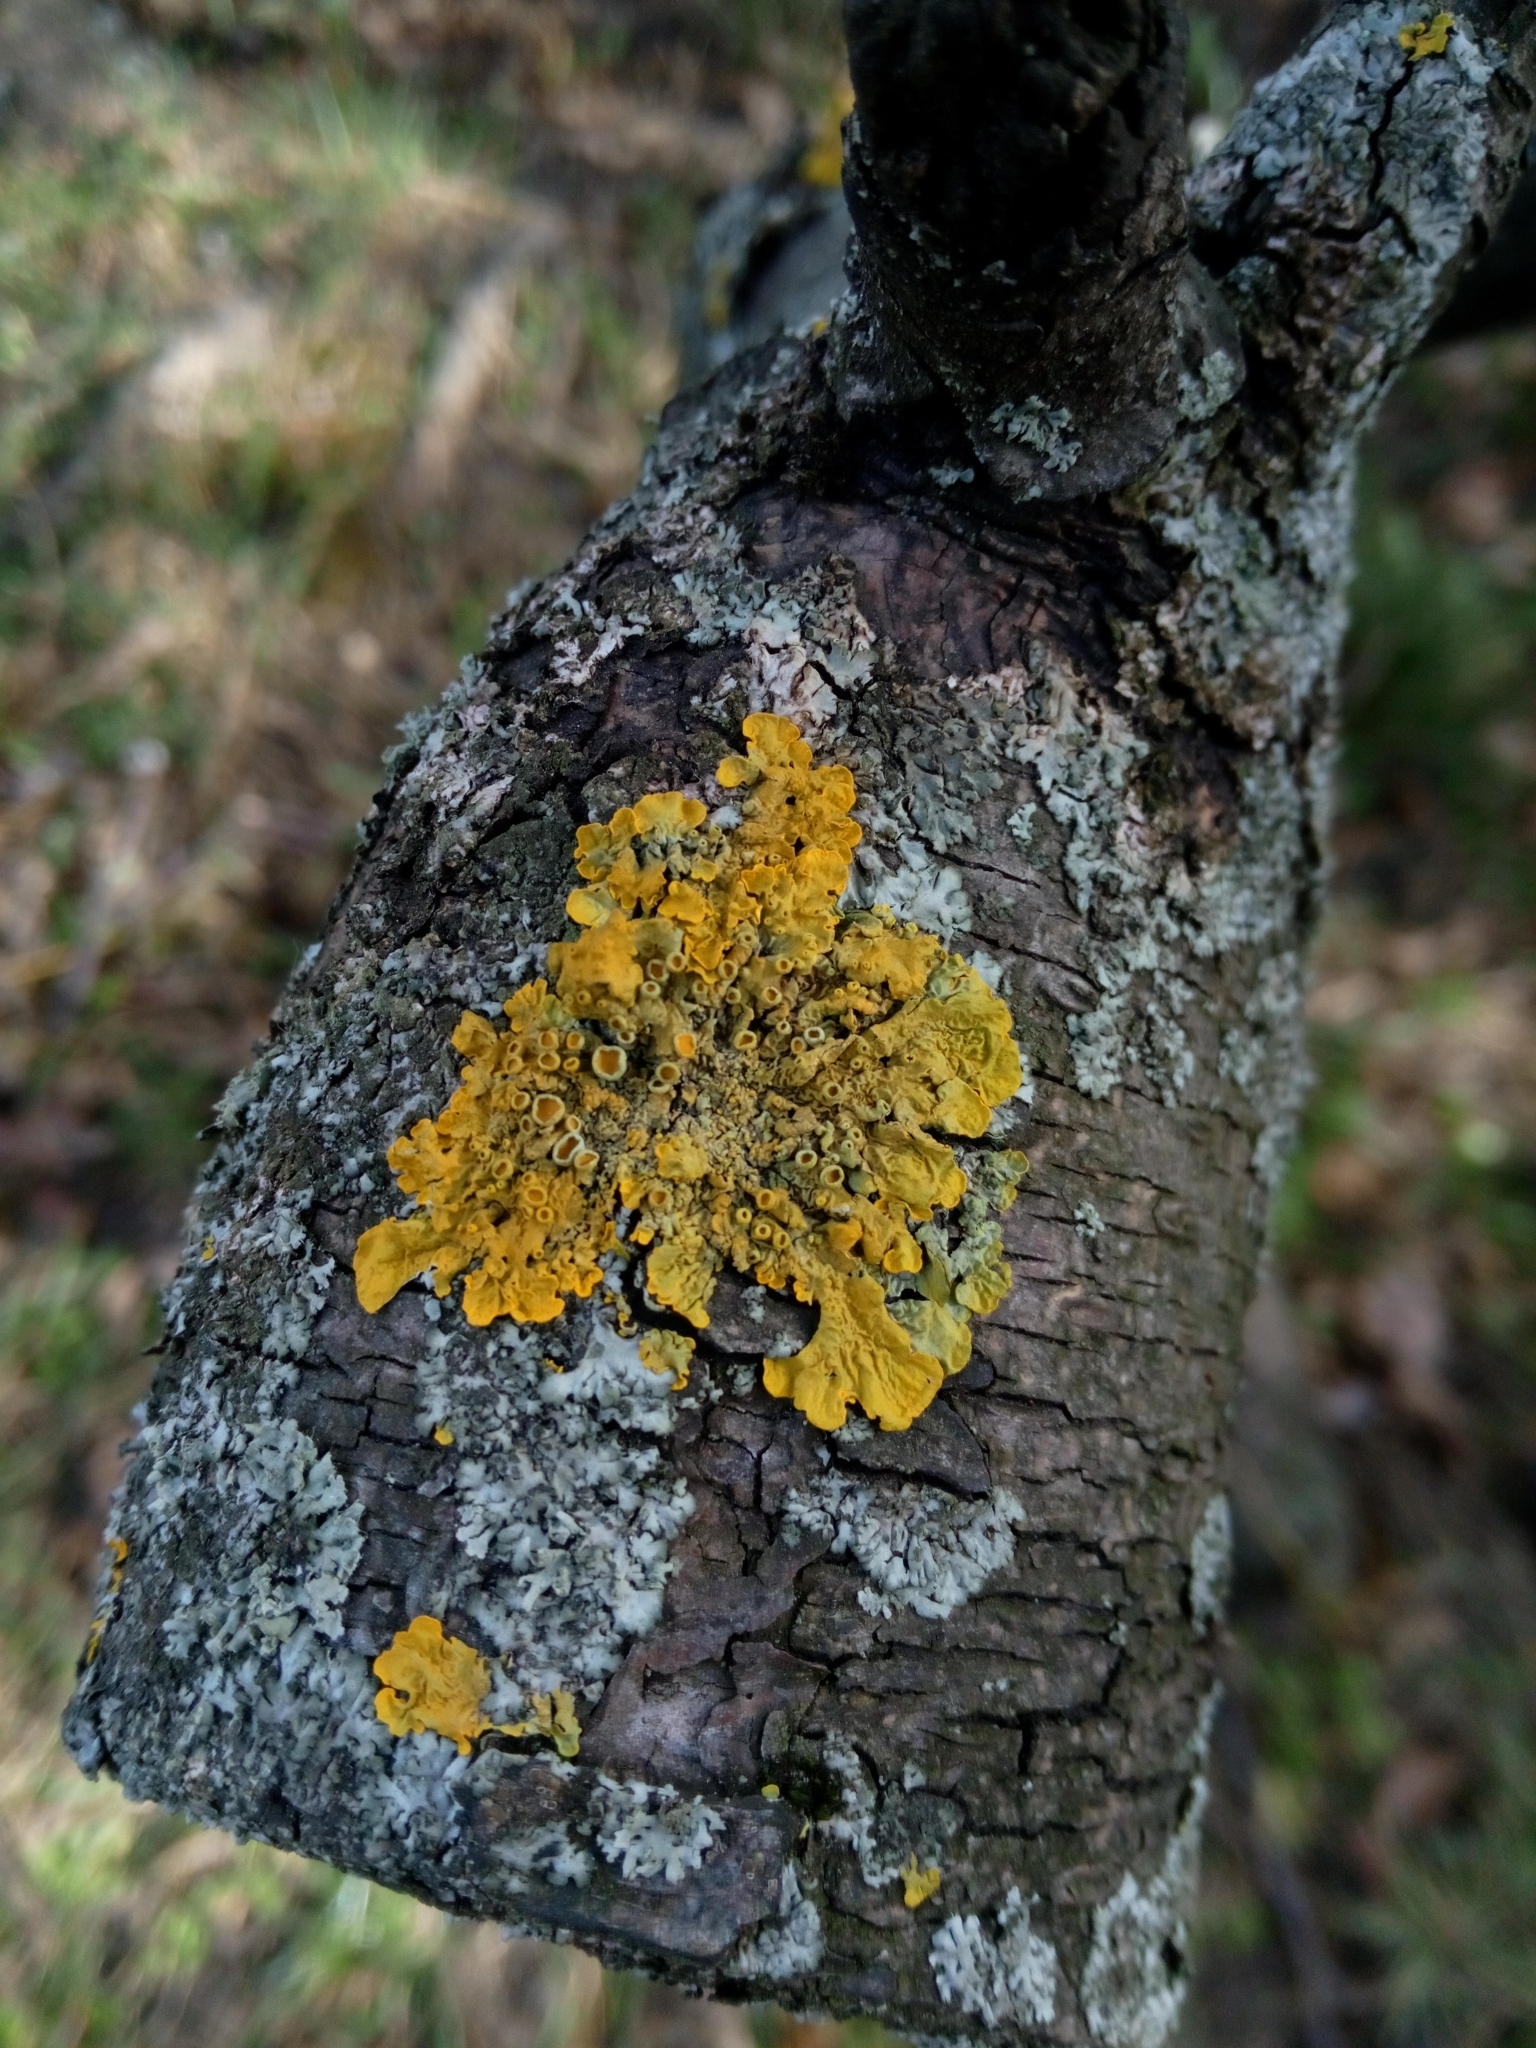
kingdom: Fungi
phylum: Ascomycota
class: Lecanoromycetes
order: Teloschistales
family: Teloschistaceae
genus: Xanthoria
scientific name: Xanthoria parietina
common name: Common orange lichen
